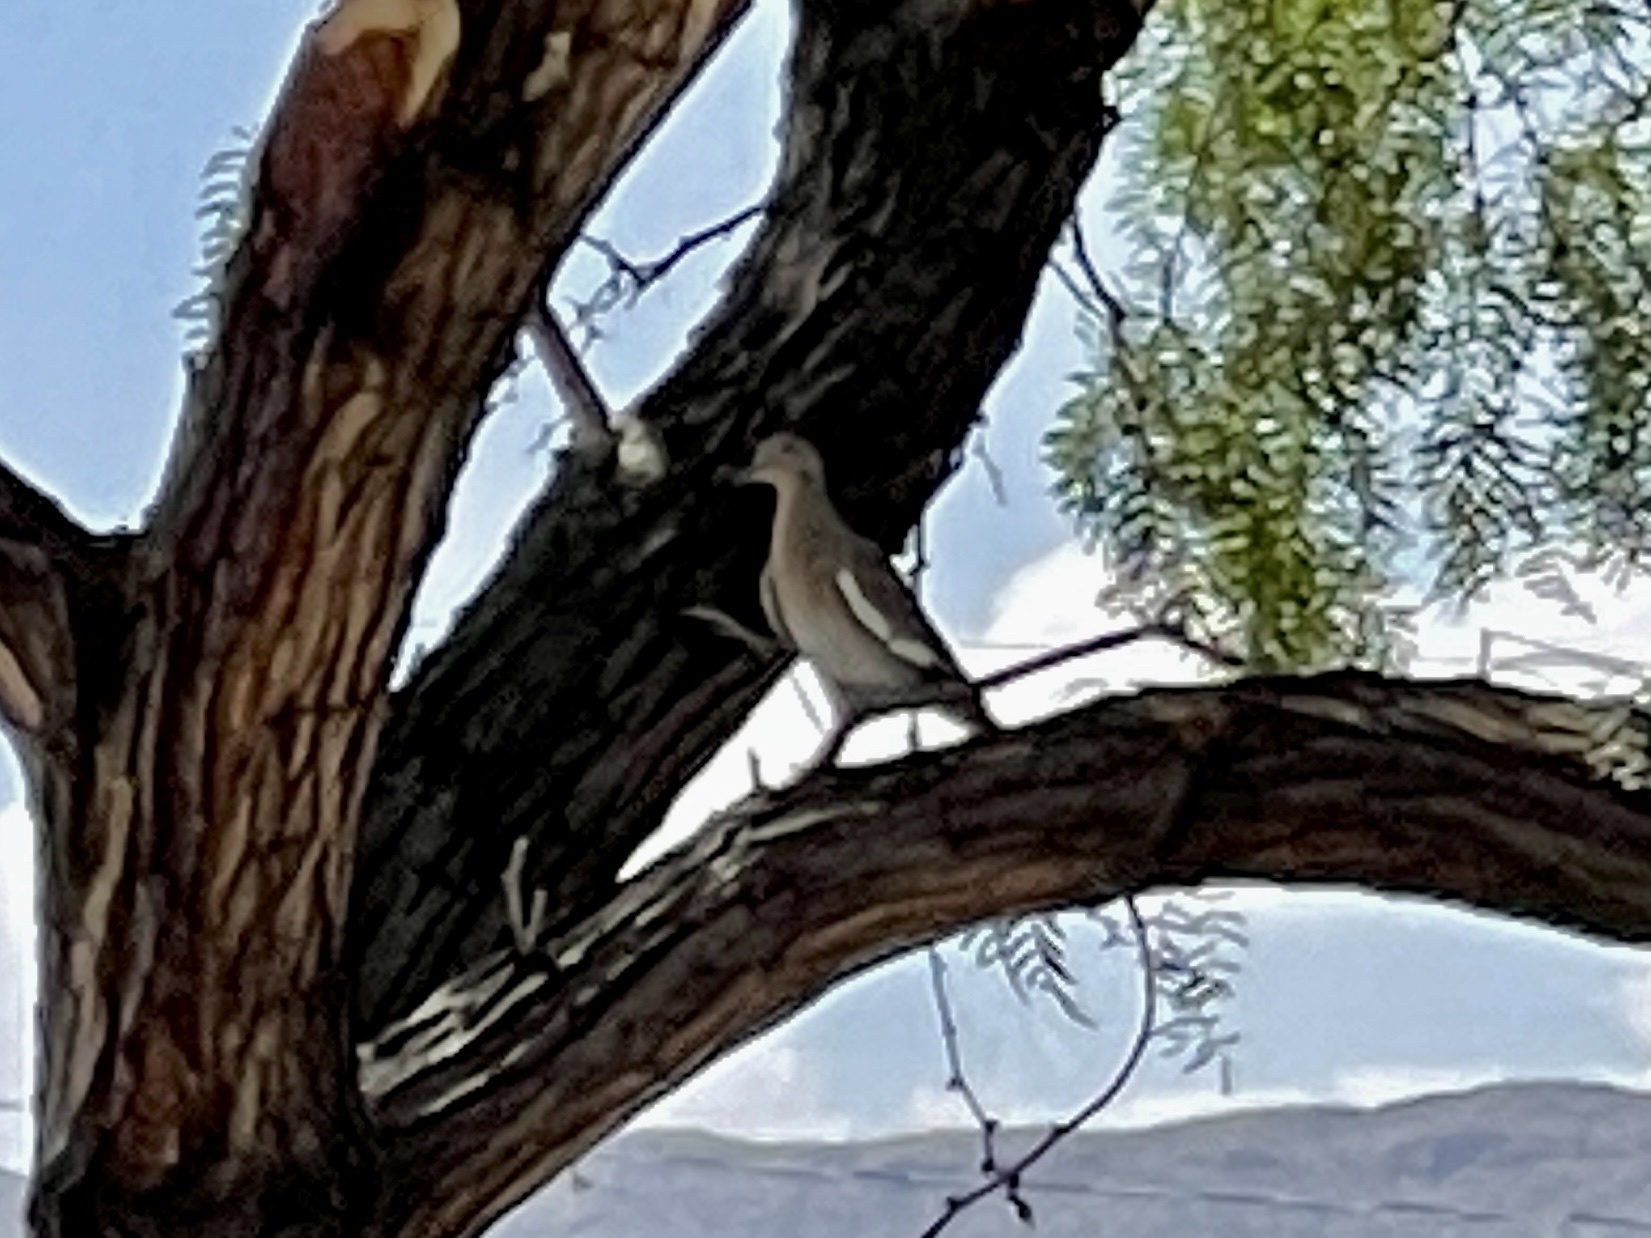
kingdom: Animalia
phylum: Chordata
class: Aves
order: Columbiformes
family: Columbidae
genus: Zenaida
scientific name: Zenaida asiatica
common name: White-winged dove
